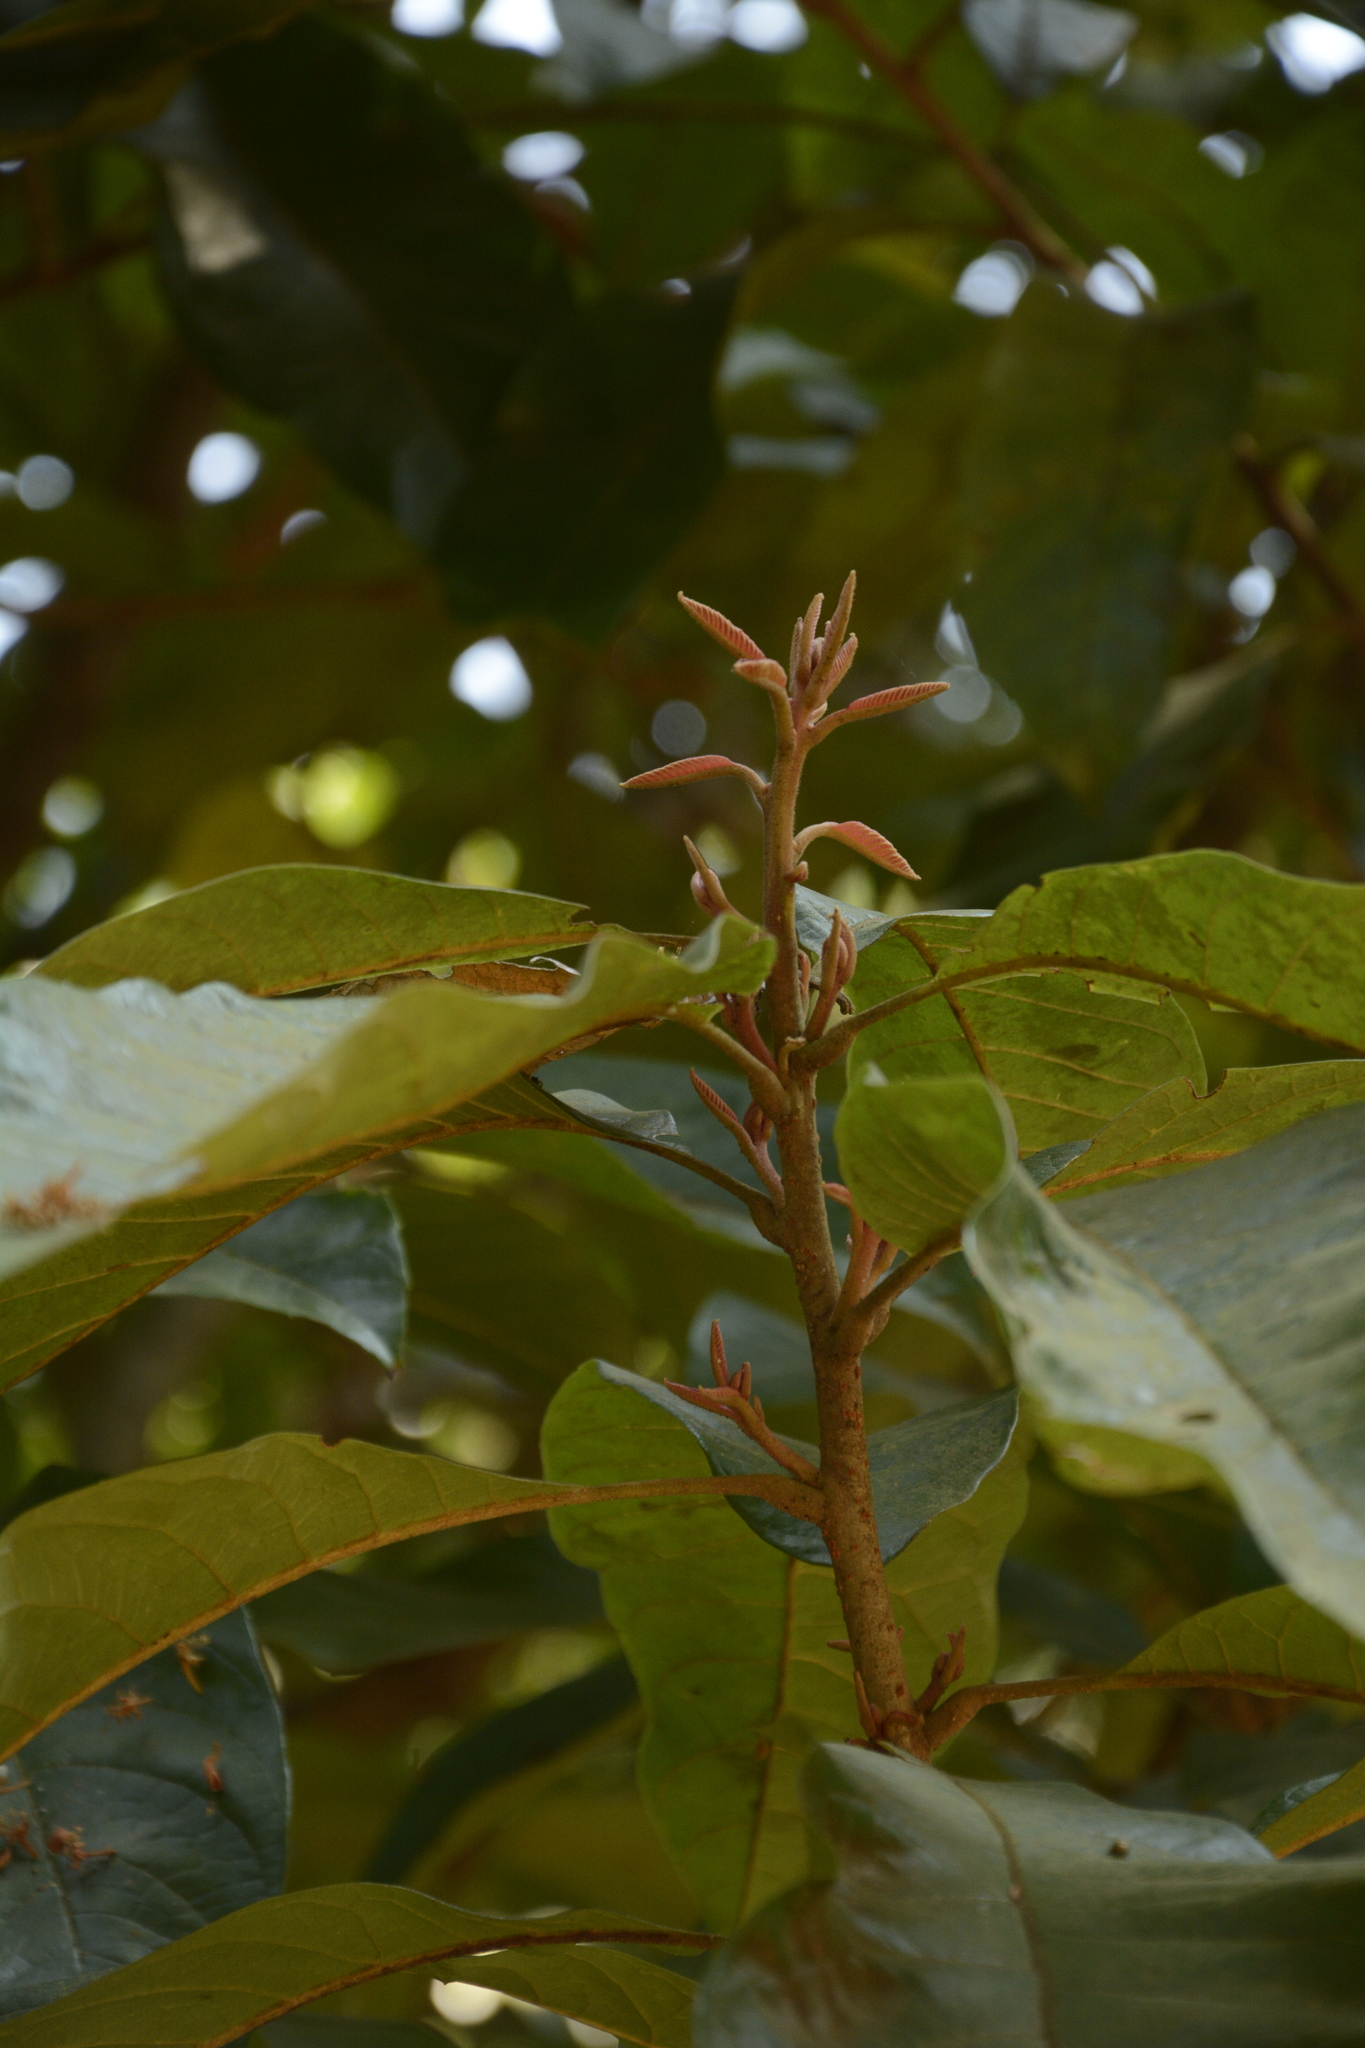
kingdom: Plantae
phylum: Tracheophyta
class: Magnoliopsida
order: Proteales
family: Sabiaceae
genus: Meliosma
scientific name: Meliosma simplicifolia
